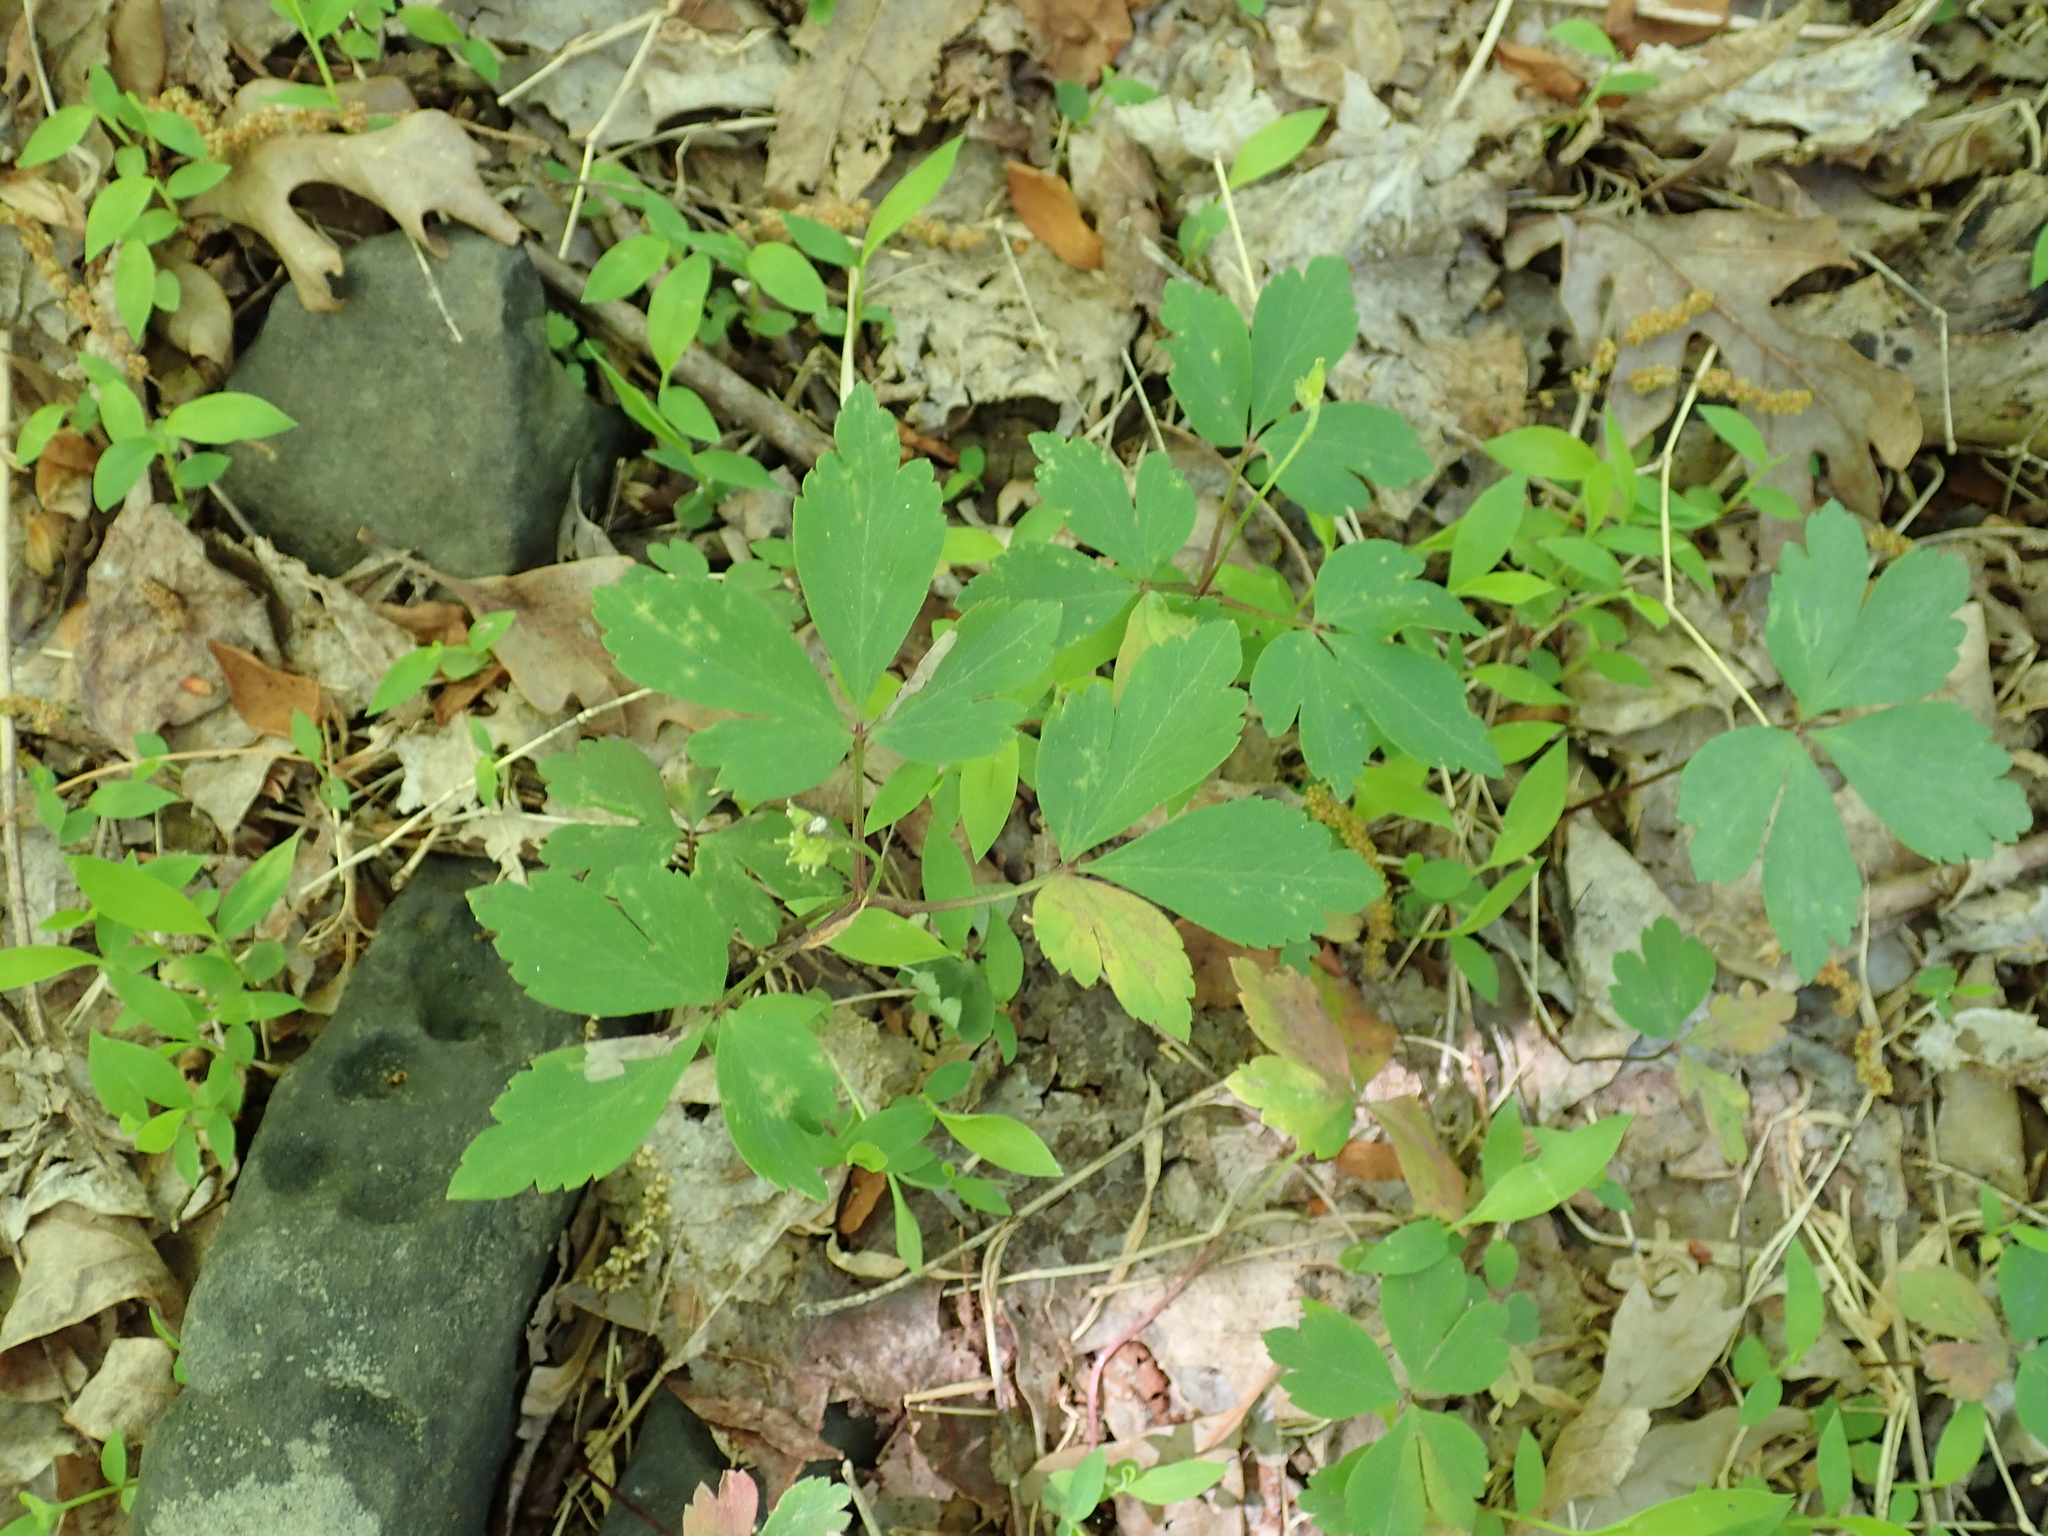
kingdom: Plantae
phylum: Tracheophyta
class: Magnoliopsida
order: Ranunculales
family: Ranunculaceae
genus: Anemone
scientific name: Anemone quinquefolia
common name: Wood anemone
